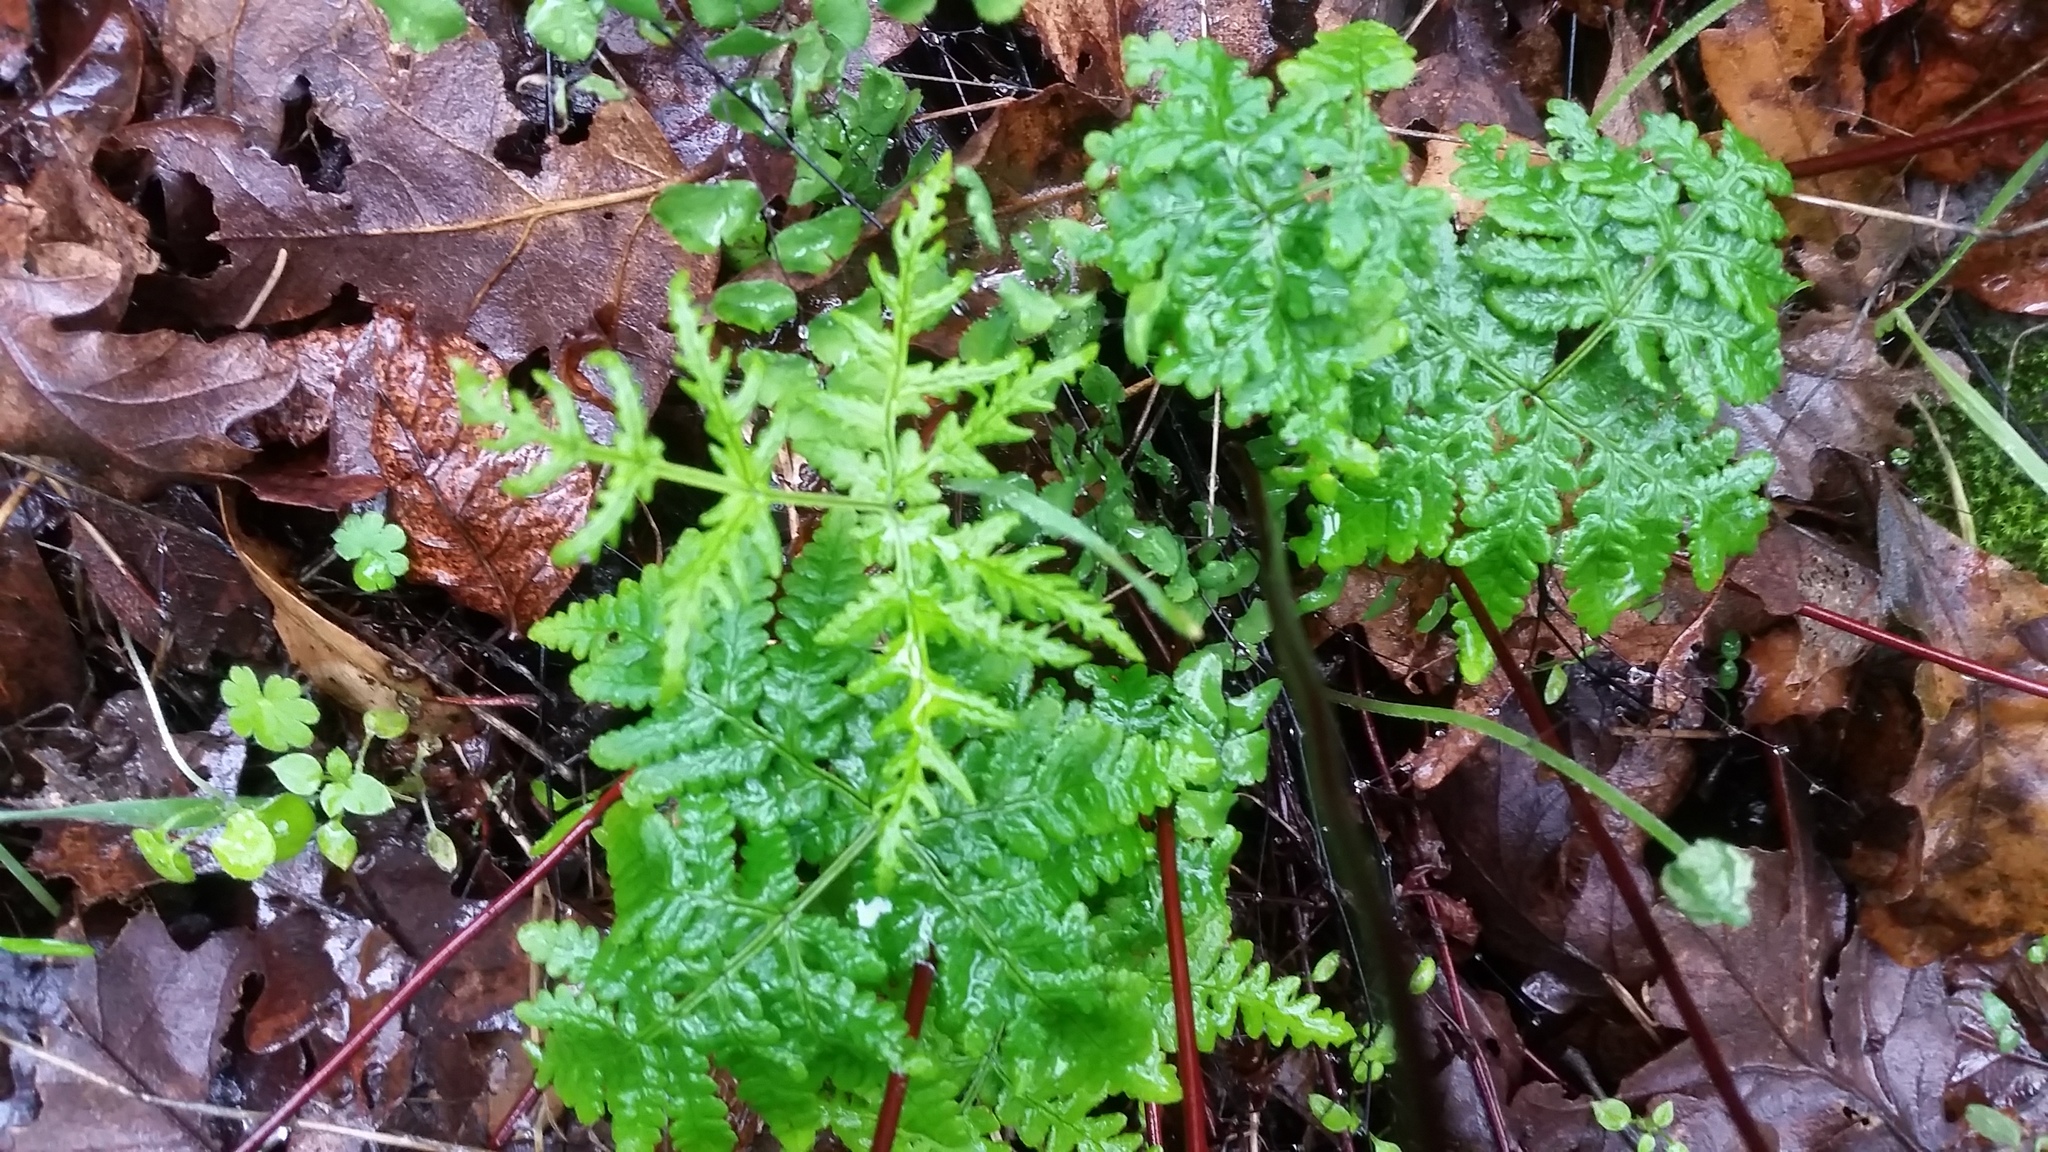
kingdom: Plantae
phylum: Tracheophyta
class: Polypodiopsida
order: Polypodiales
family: Pteridaceae
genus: Pentagramma
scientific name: Pentagramma triangularis
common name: Gold fern
